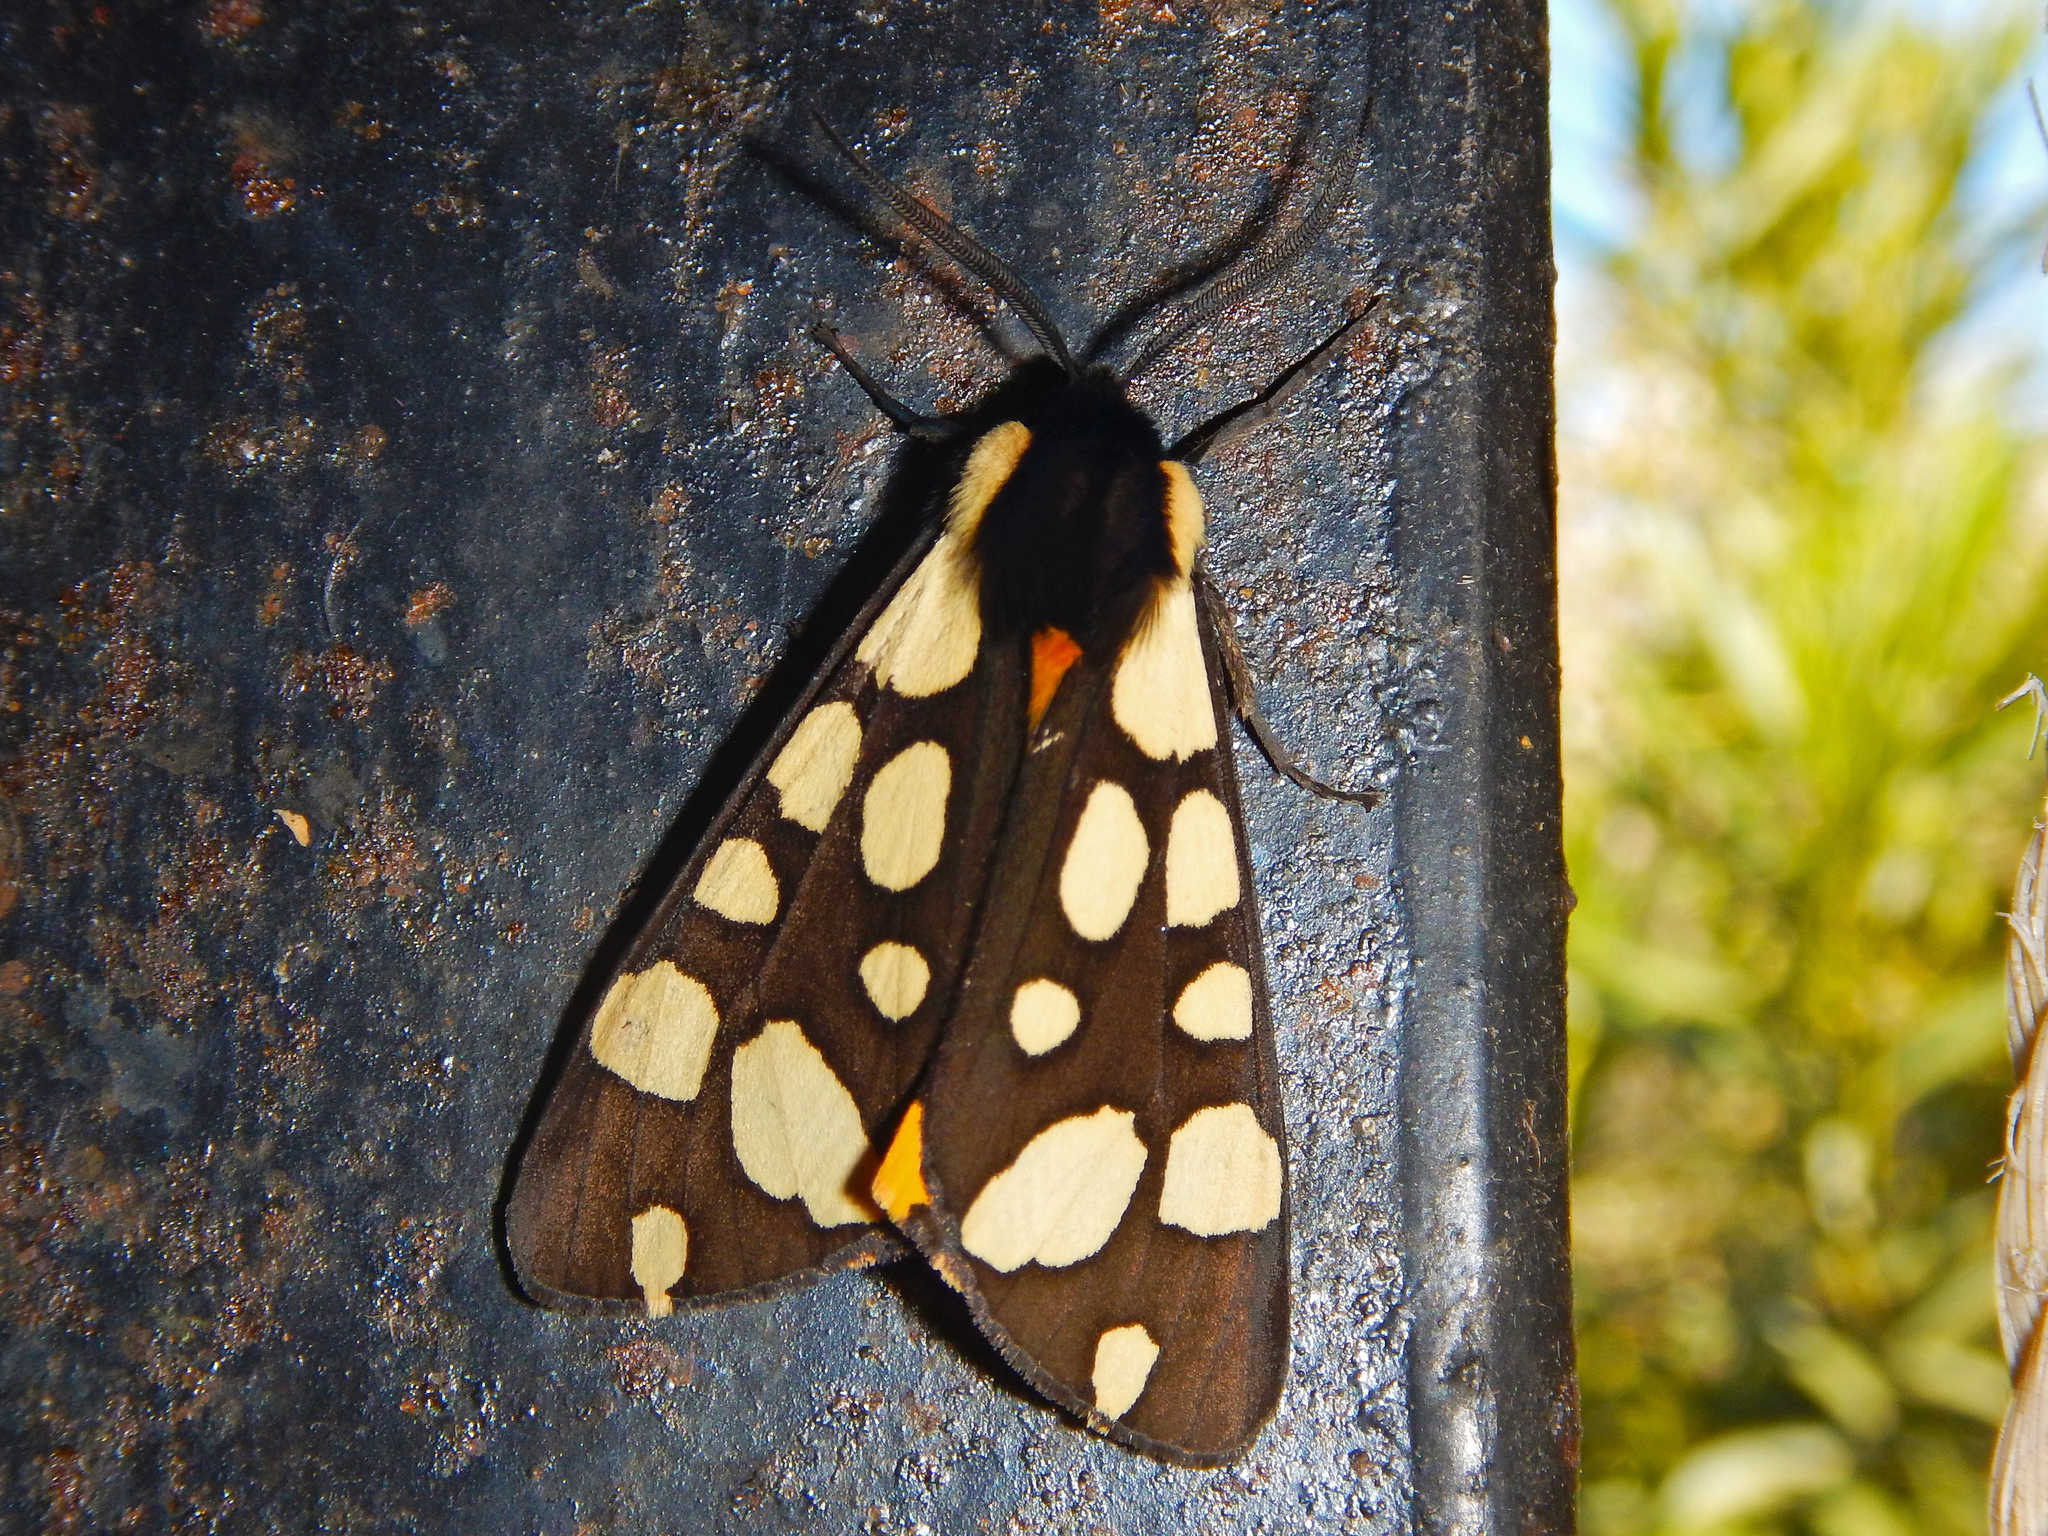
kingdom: Animalia
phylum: Arthropoda
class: Insecta
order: Lepidoptera
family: Erebidae
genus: Epicallia
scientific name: Epicallia villica
